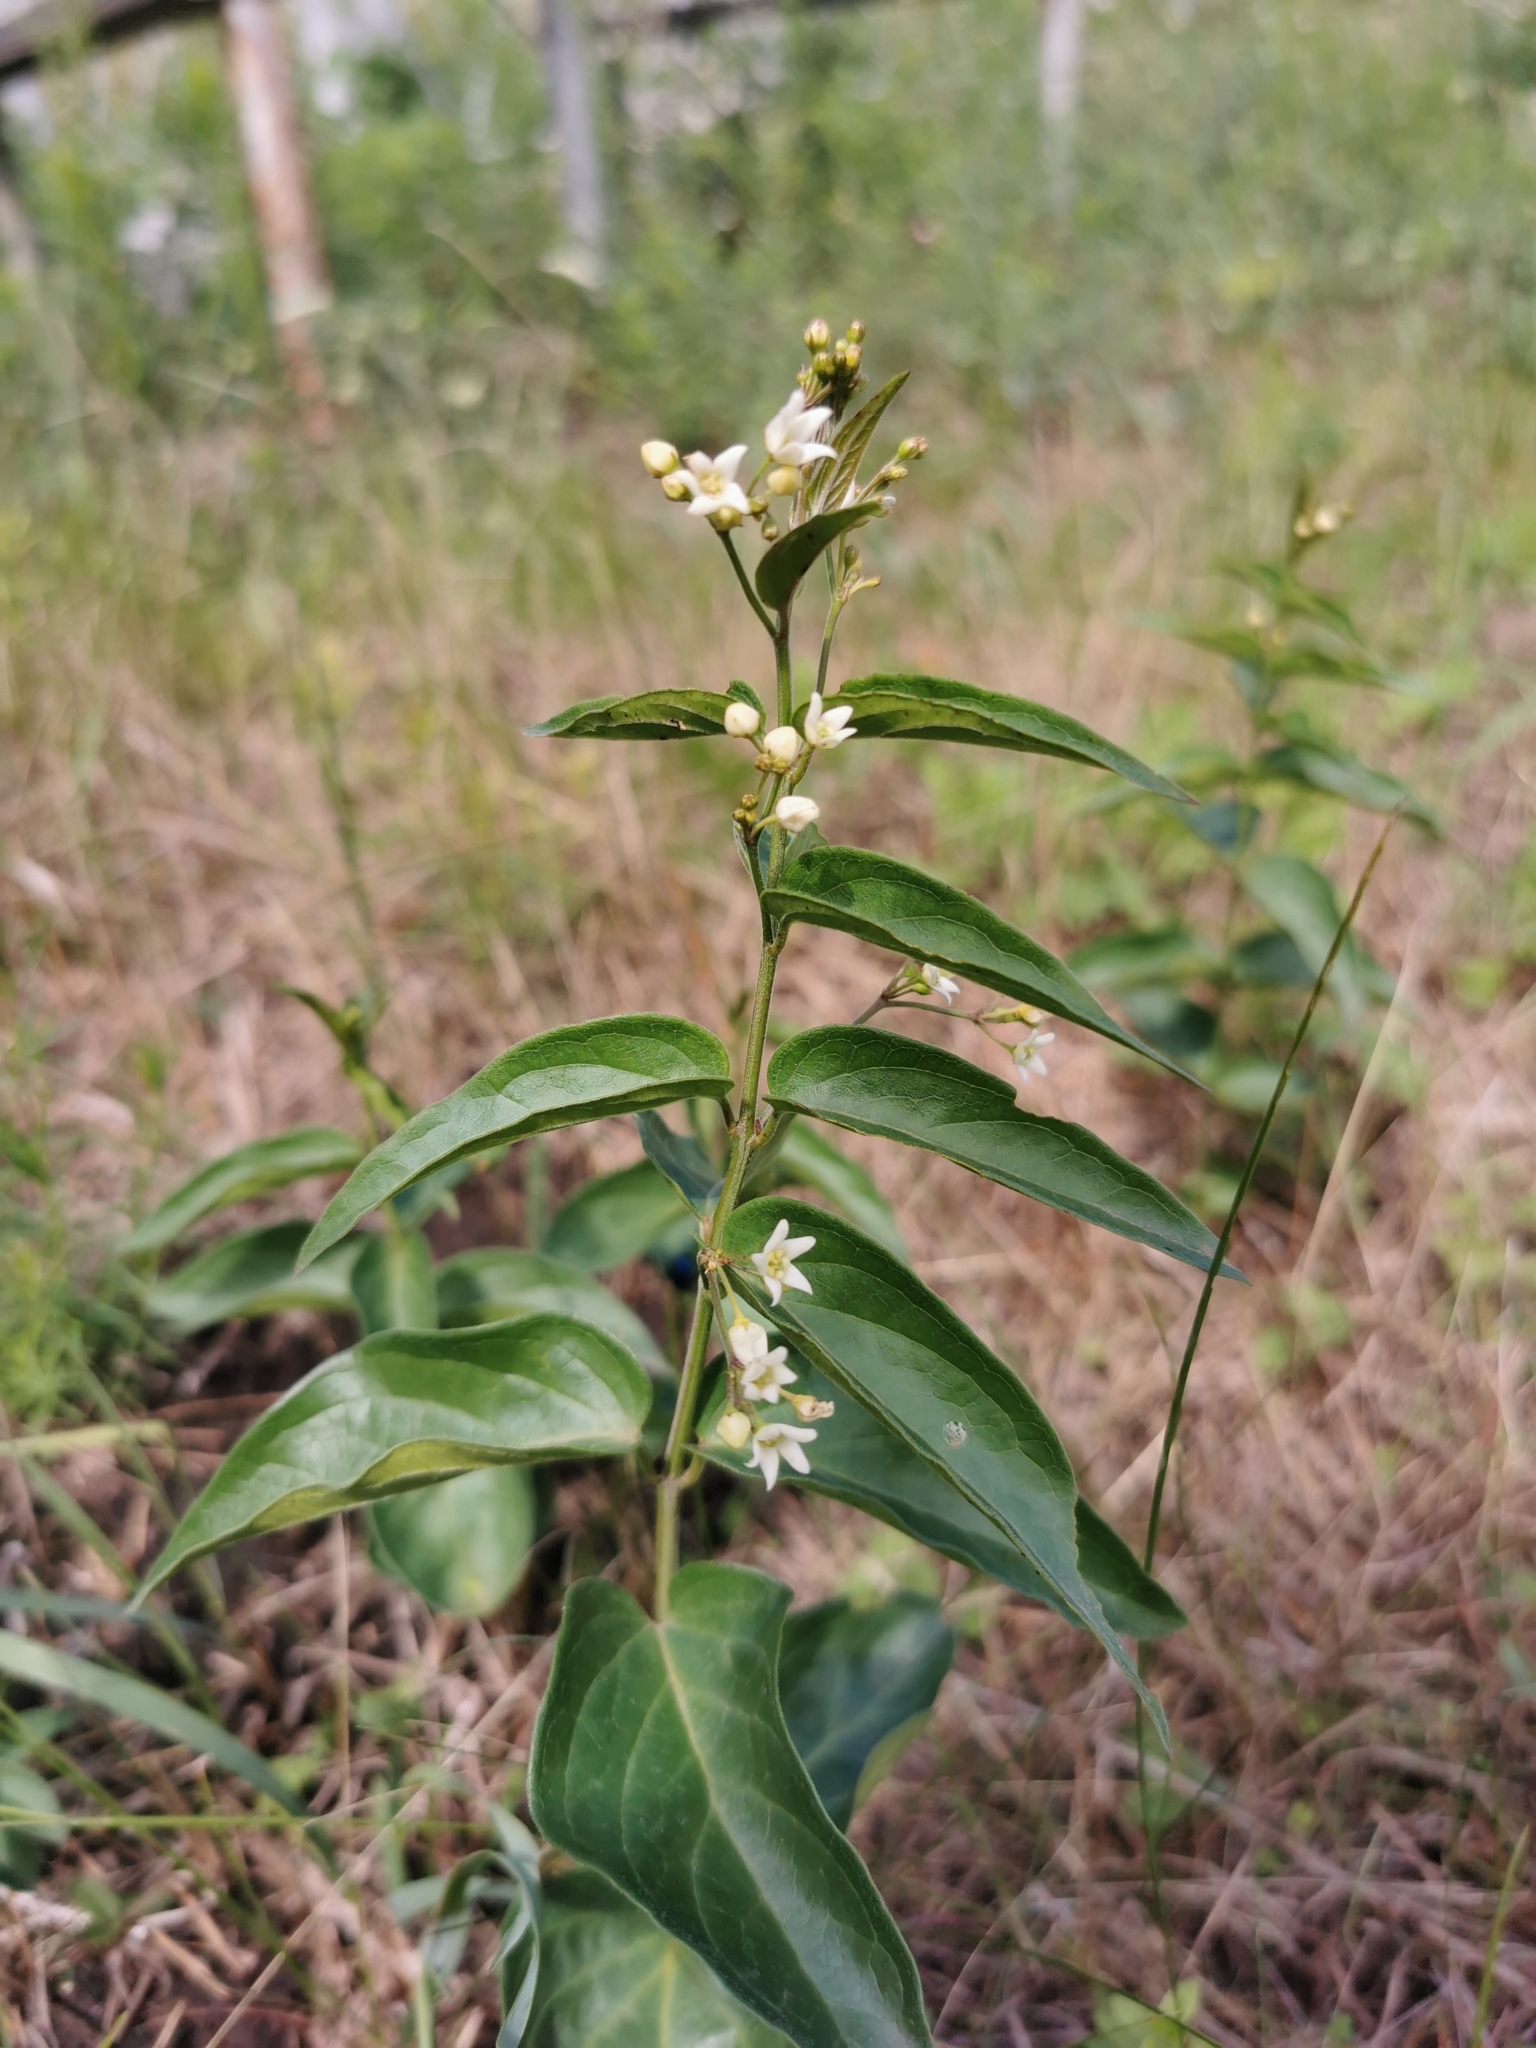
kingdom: Plantae
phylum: Tracheophyta
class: Magnoliopsida
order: Gentianales
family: Apocynaceae
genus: Vincetoxicum
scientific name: Vincetoxicum hirundinaria
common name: White swallowwort
